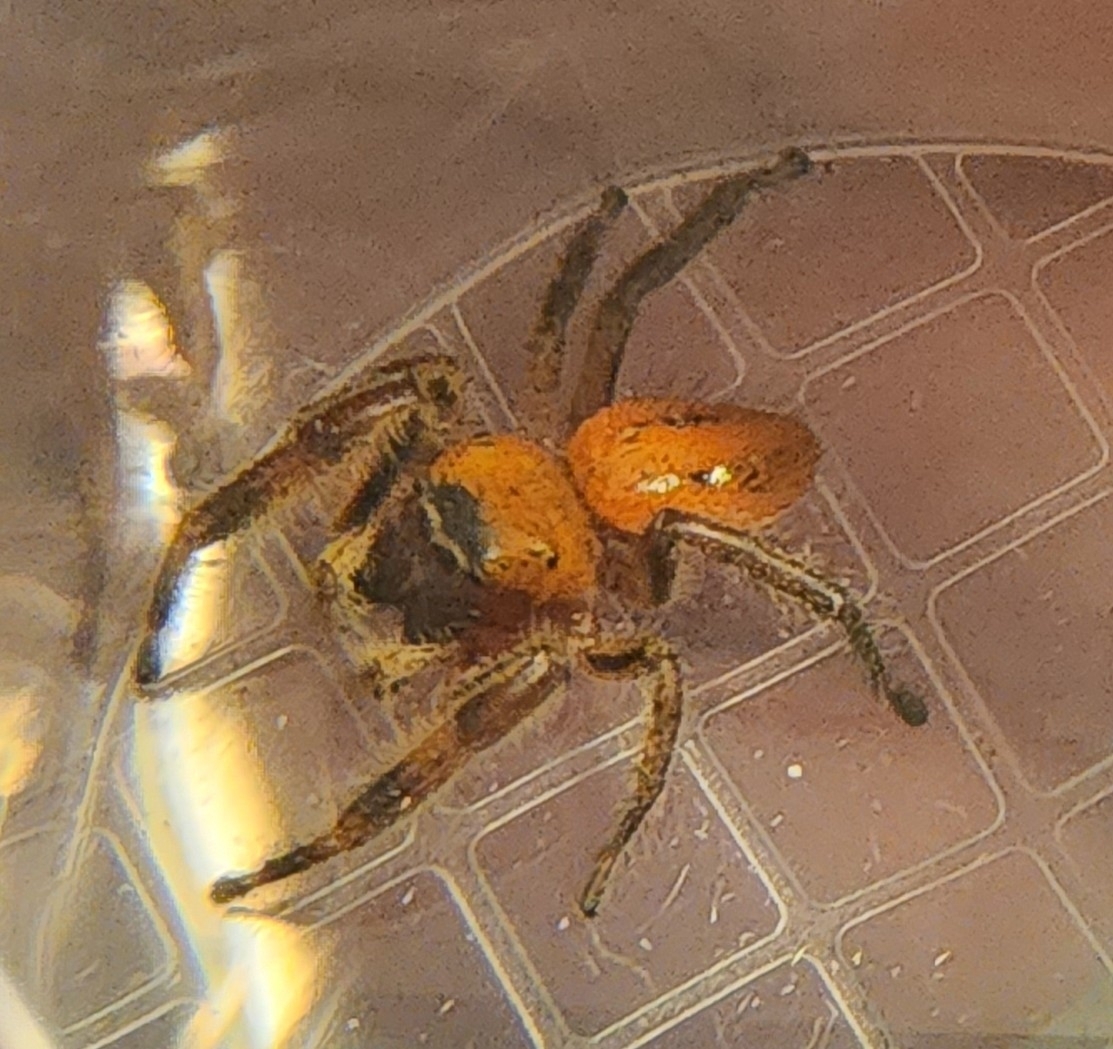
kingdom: Animalia
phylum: Arthropoda
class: Arachnida
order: Araneae
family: Salticidae
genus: Phidippus
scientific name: Phidippus pius
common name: Jumping spiders
